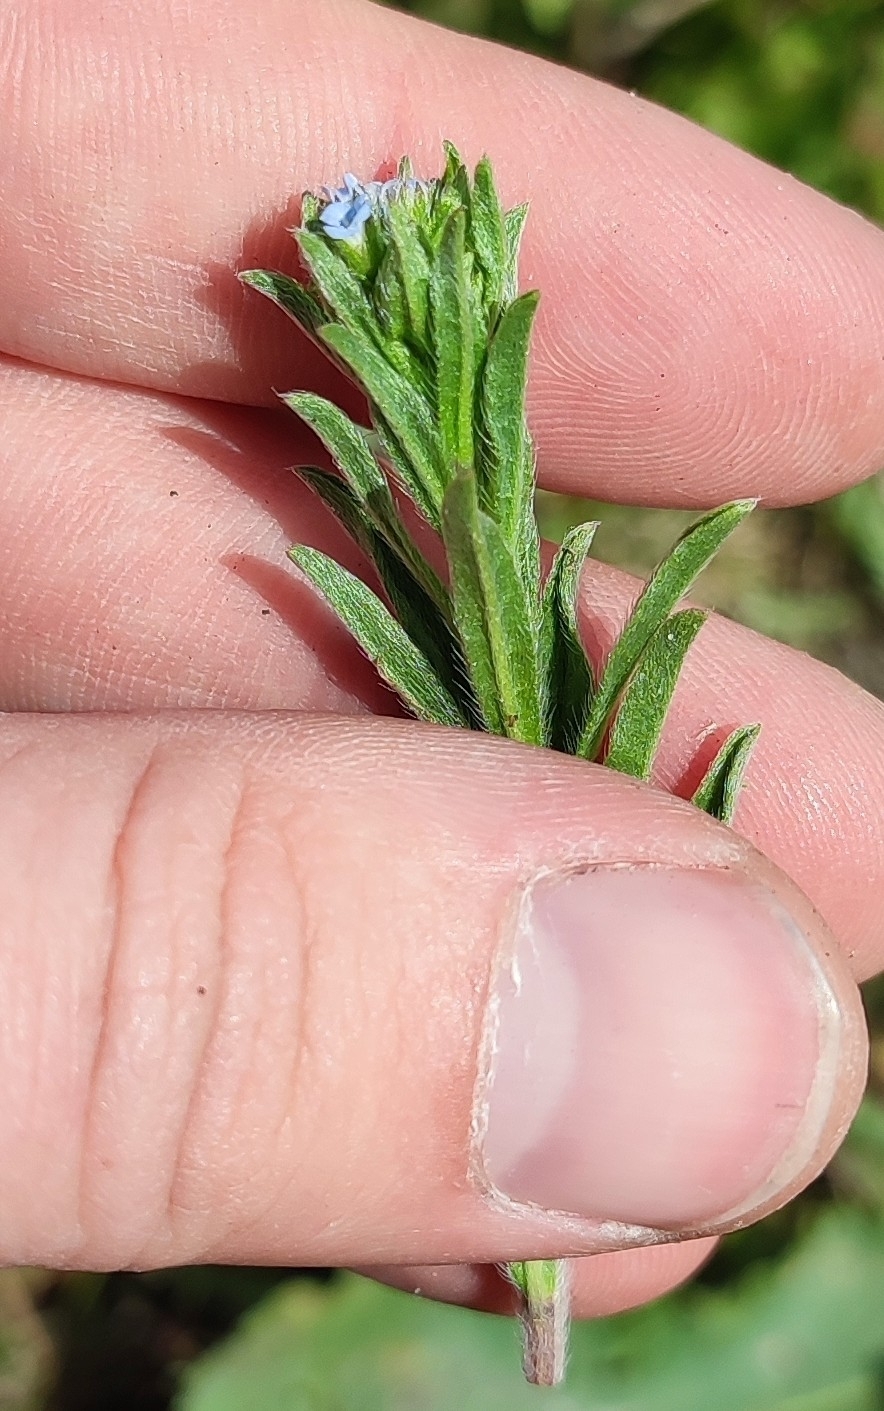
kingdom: Plantae
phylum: Tracheophyta
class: Magnoliopsida
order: Boraginales
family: Boraginaceae
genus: Lappula
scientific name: Lappula squarrosa
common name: European stickseed
